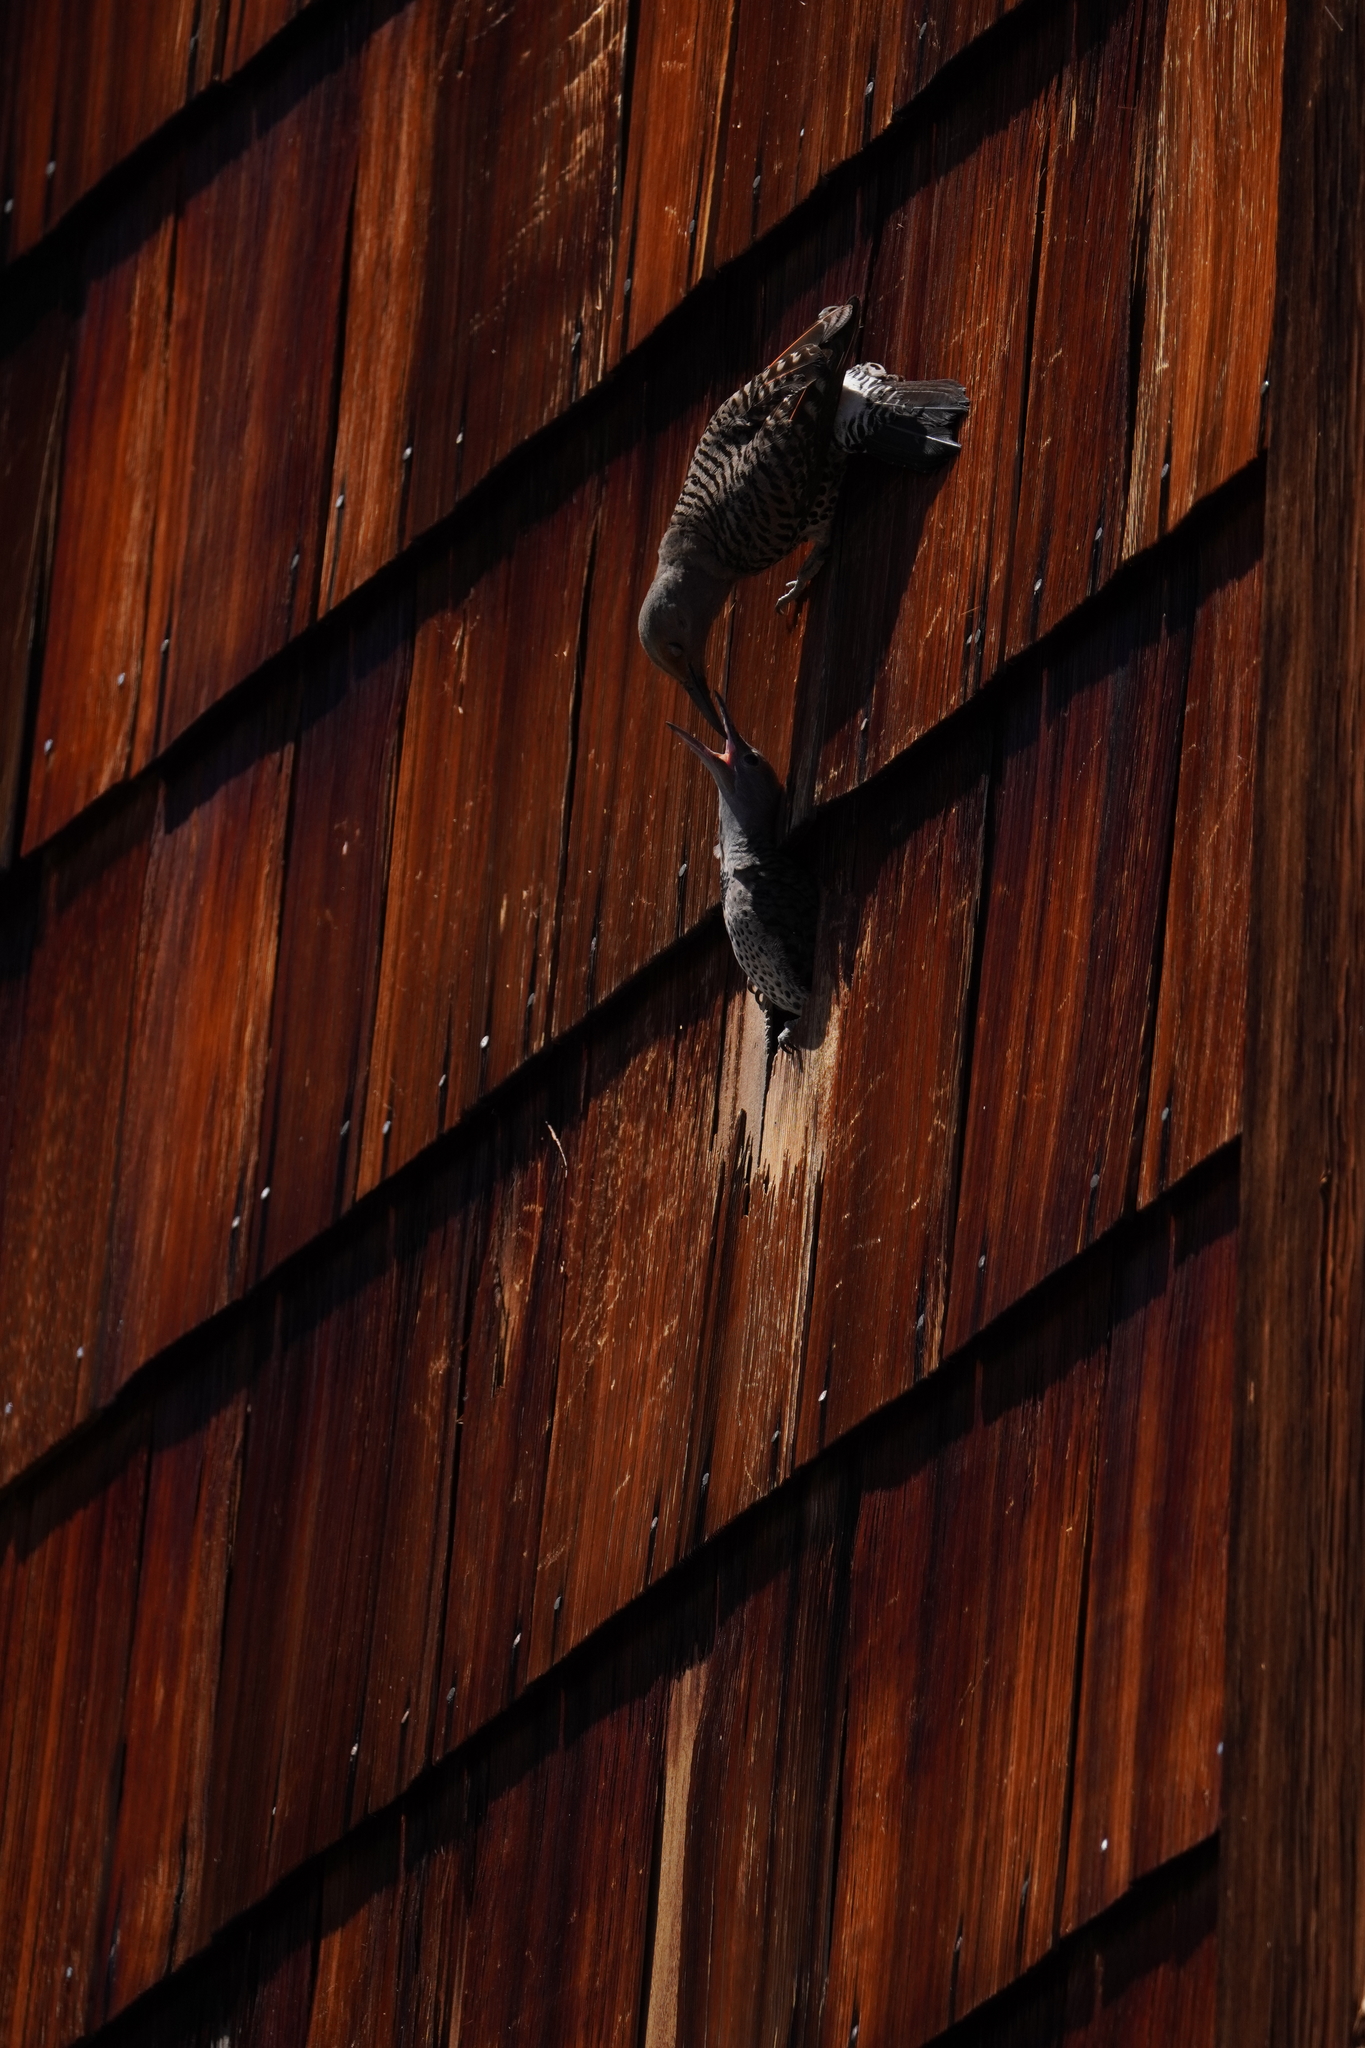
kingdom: Animalia
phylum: Chordata
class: Aves
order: Piciformes
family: Picidae
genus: Colaptes
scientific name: Colaptes auratus
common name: Northern flicker
